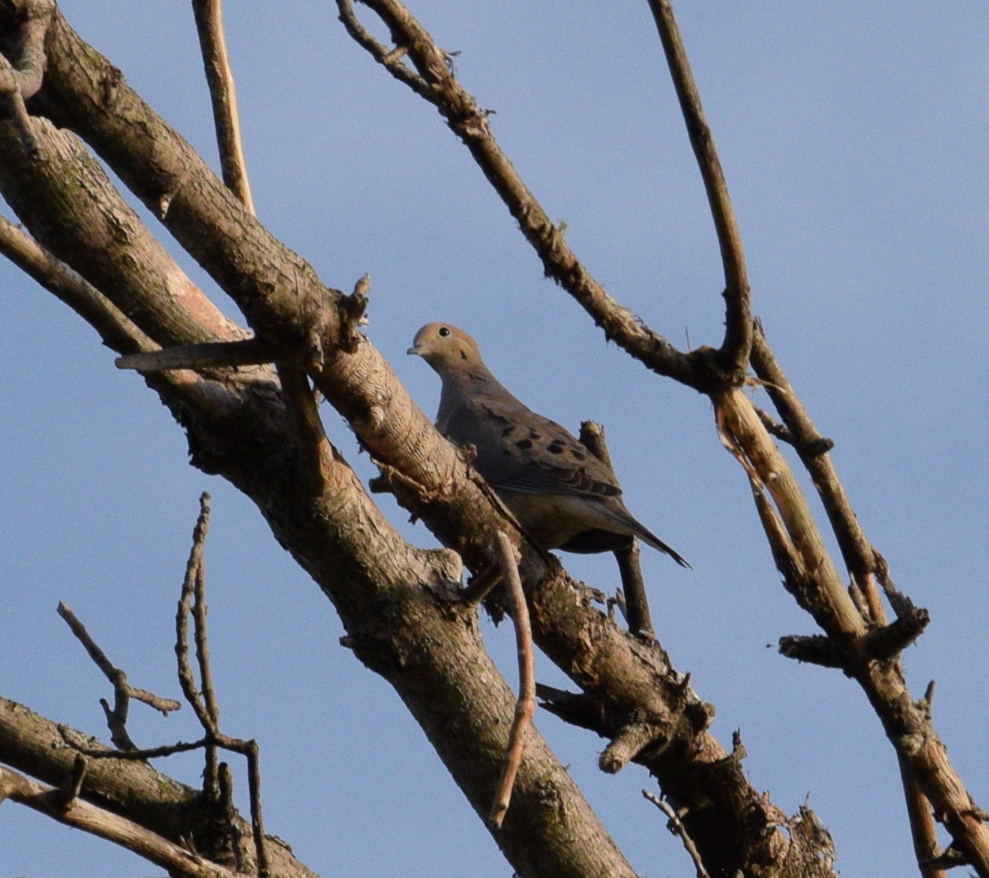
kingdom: Animalia
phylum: Chordata
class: Aves
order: Columbiformes
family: Columbidae
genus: Zenaida
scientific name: Zenaida macroura
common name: Mourning dove
